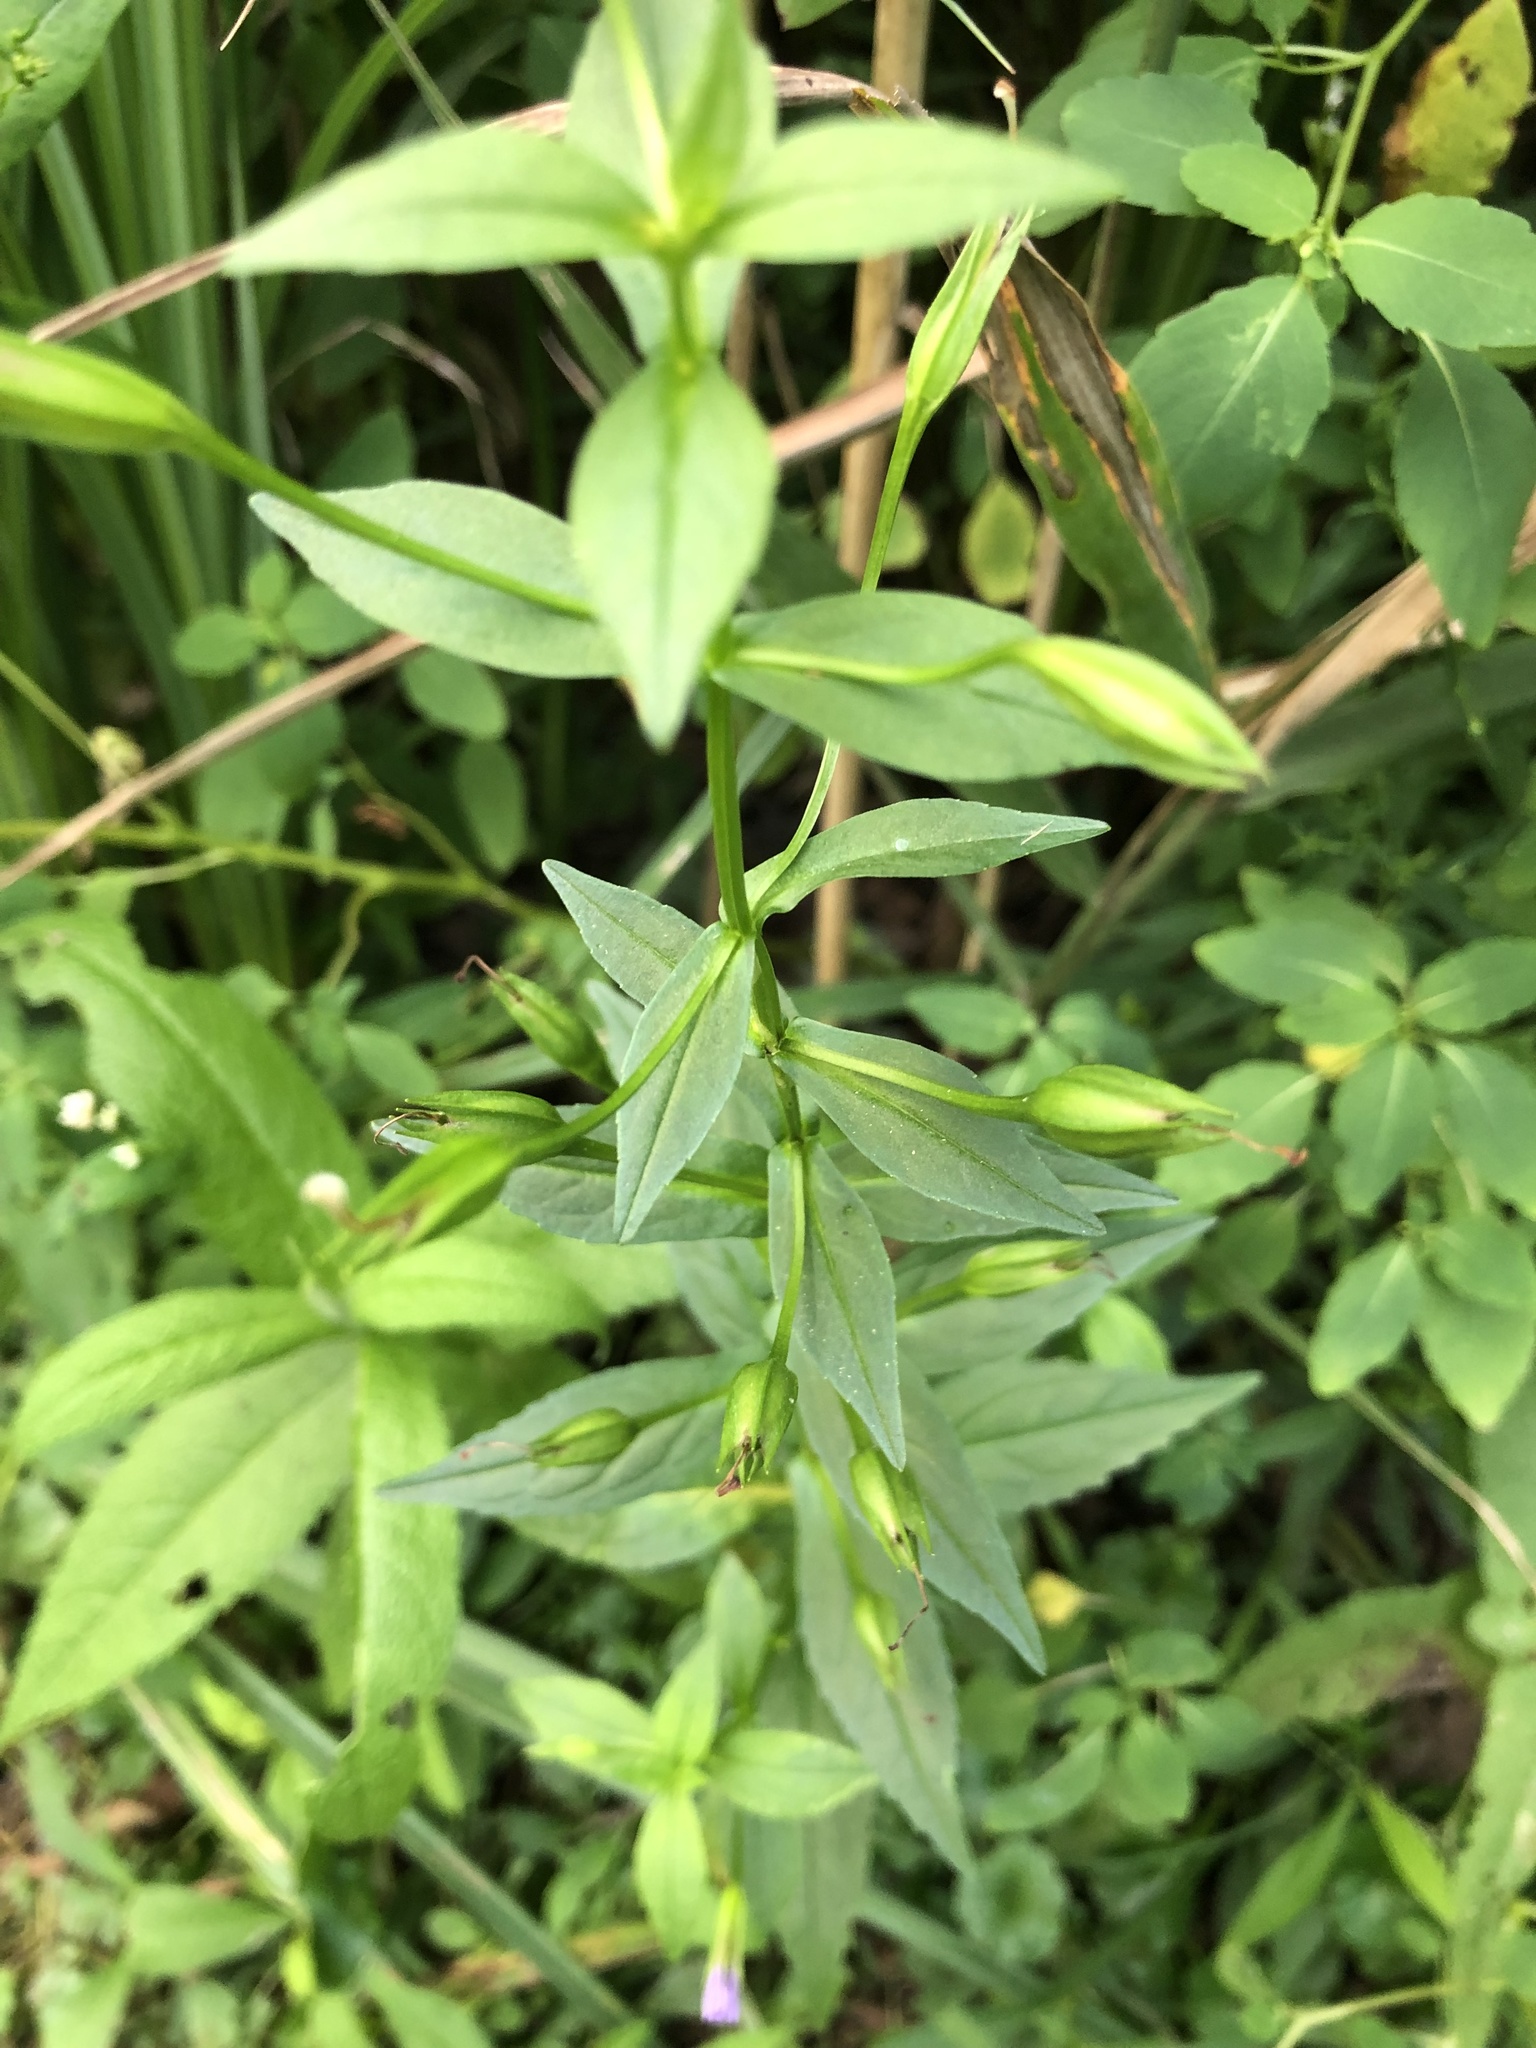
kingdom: Plantae
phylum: Tracheophyta
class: Magnoliopsida
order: Lamiales
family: Phrymaceae
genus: Mimulus
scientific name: Mimulus ringens
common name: Allegheny monkeyflower
